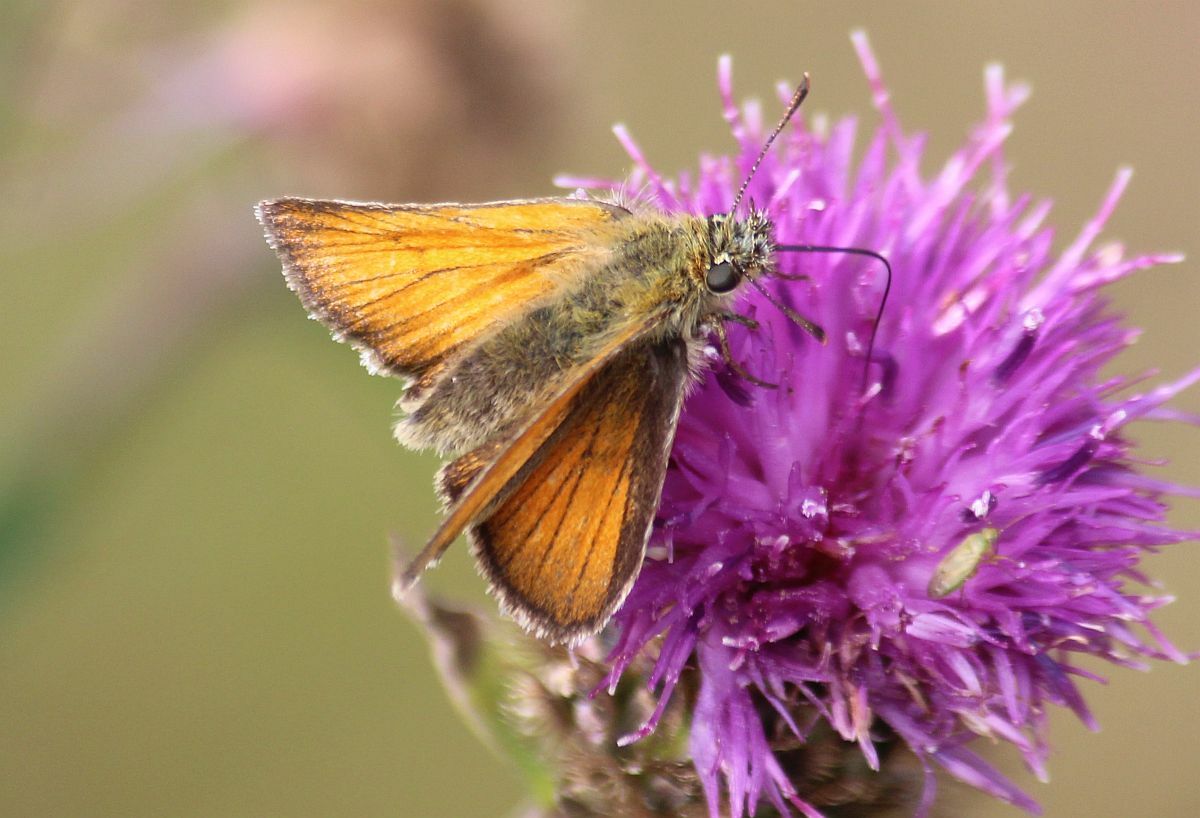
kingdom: Animalia
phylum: Arthropoda
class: Insecta
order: Lepidoptera
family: Hesperiidae
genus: Thymelicus
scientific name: Thymelicus sylvestris
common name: Small skipper
